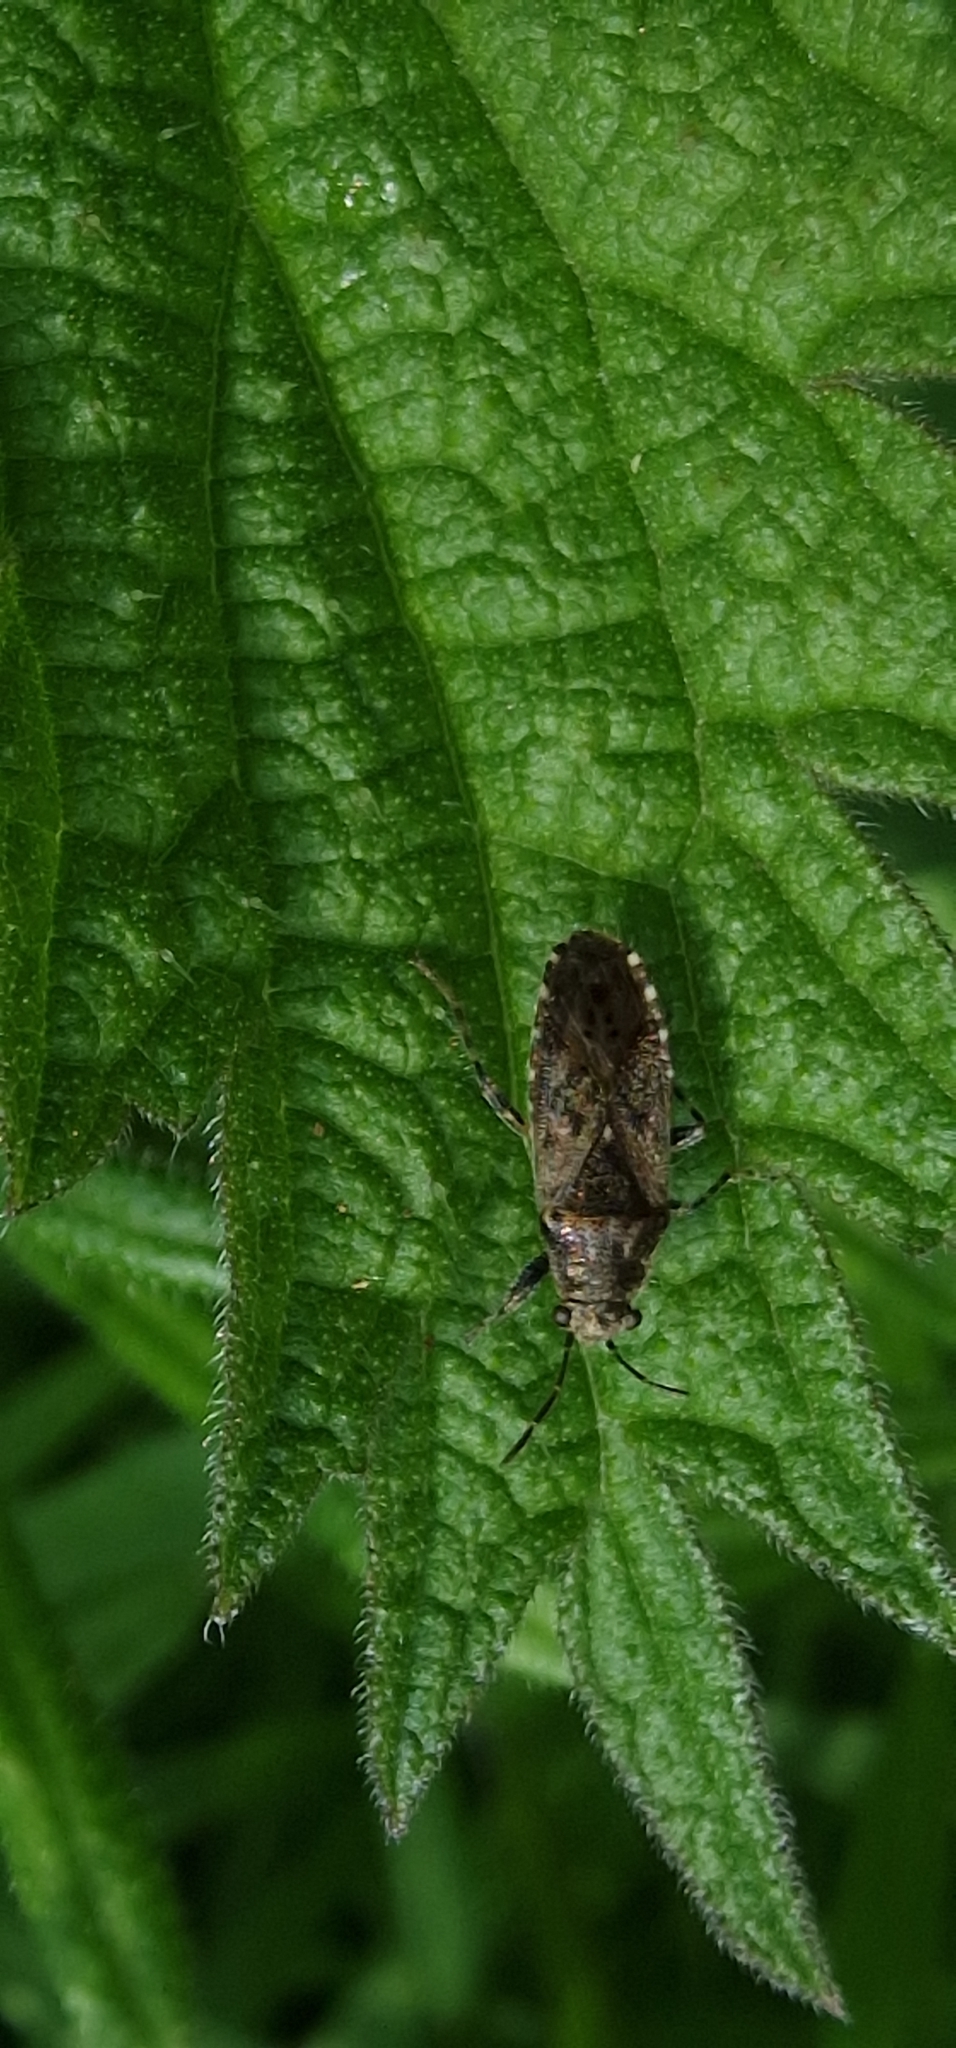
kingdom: Animalia
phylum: Arthropoda
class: Insecta
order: Hemiptera
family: Heterogastridae
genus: Heterogaster
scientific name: Heterogaster urticae
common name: Seed bug
